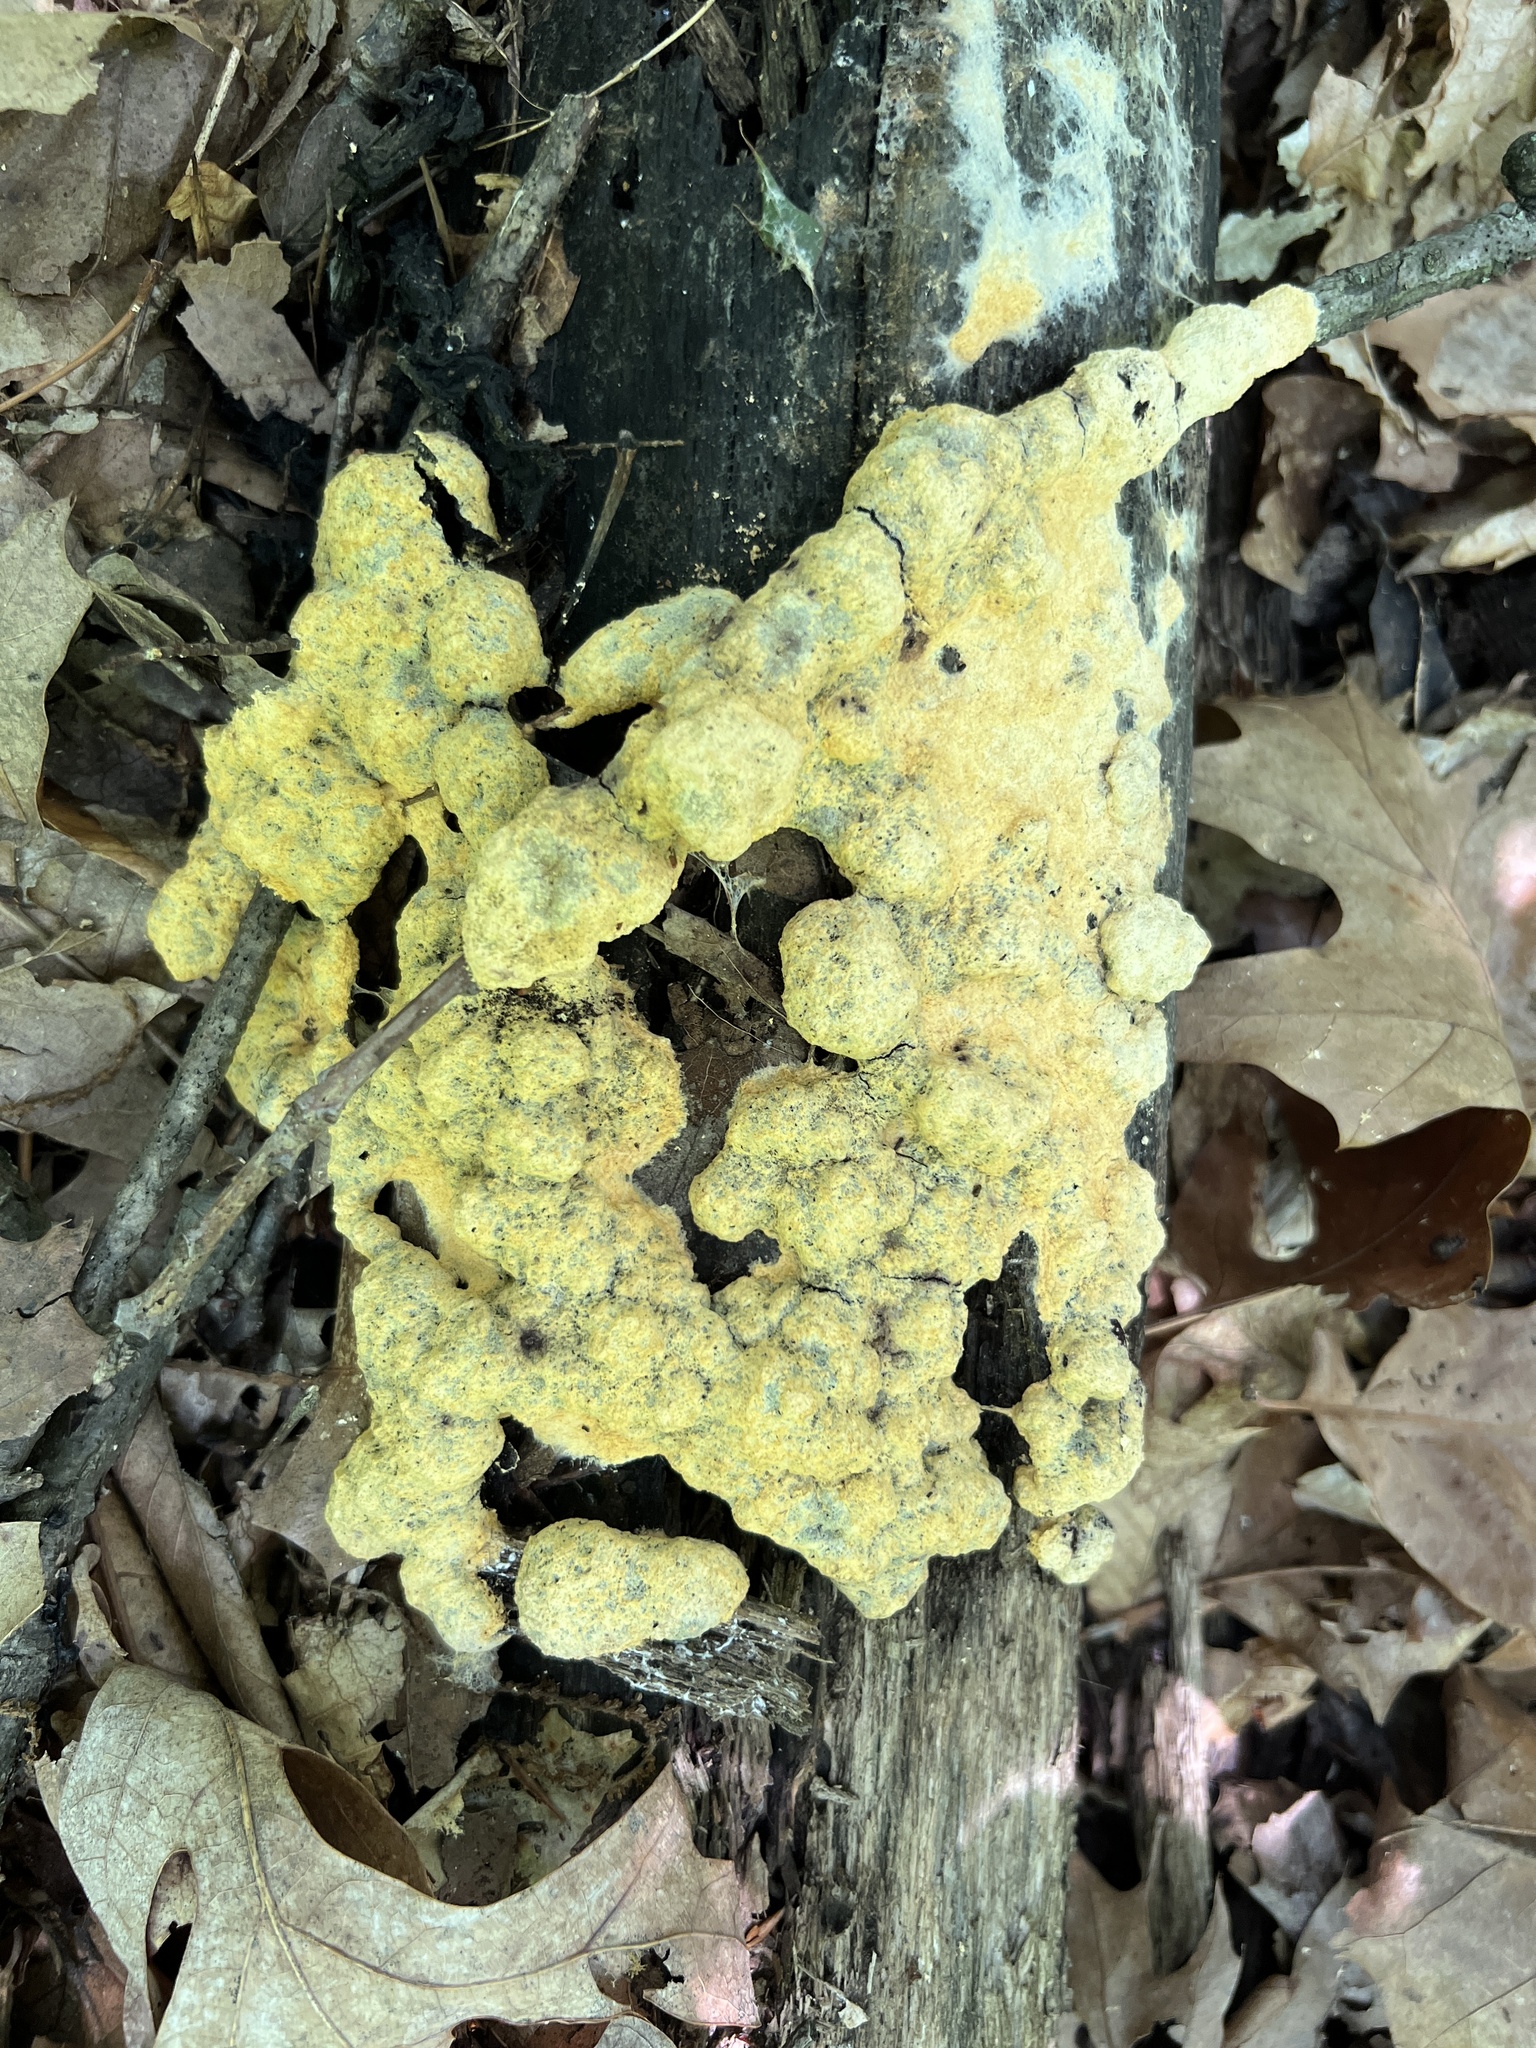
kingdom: Protozoa
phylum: Mycetozoa
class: Myxomycetes
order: Physarales
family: Physaraceae
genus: Fuligo
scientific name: Fuligo septica
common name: Dog vomit slime mold
